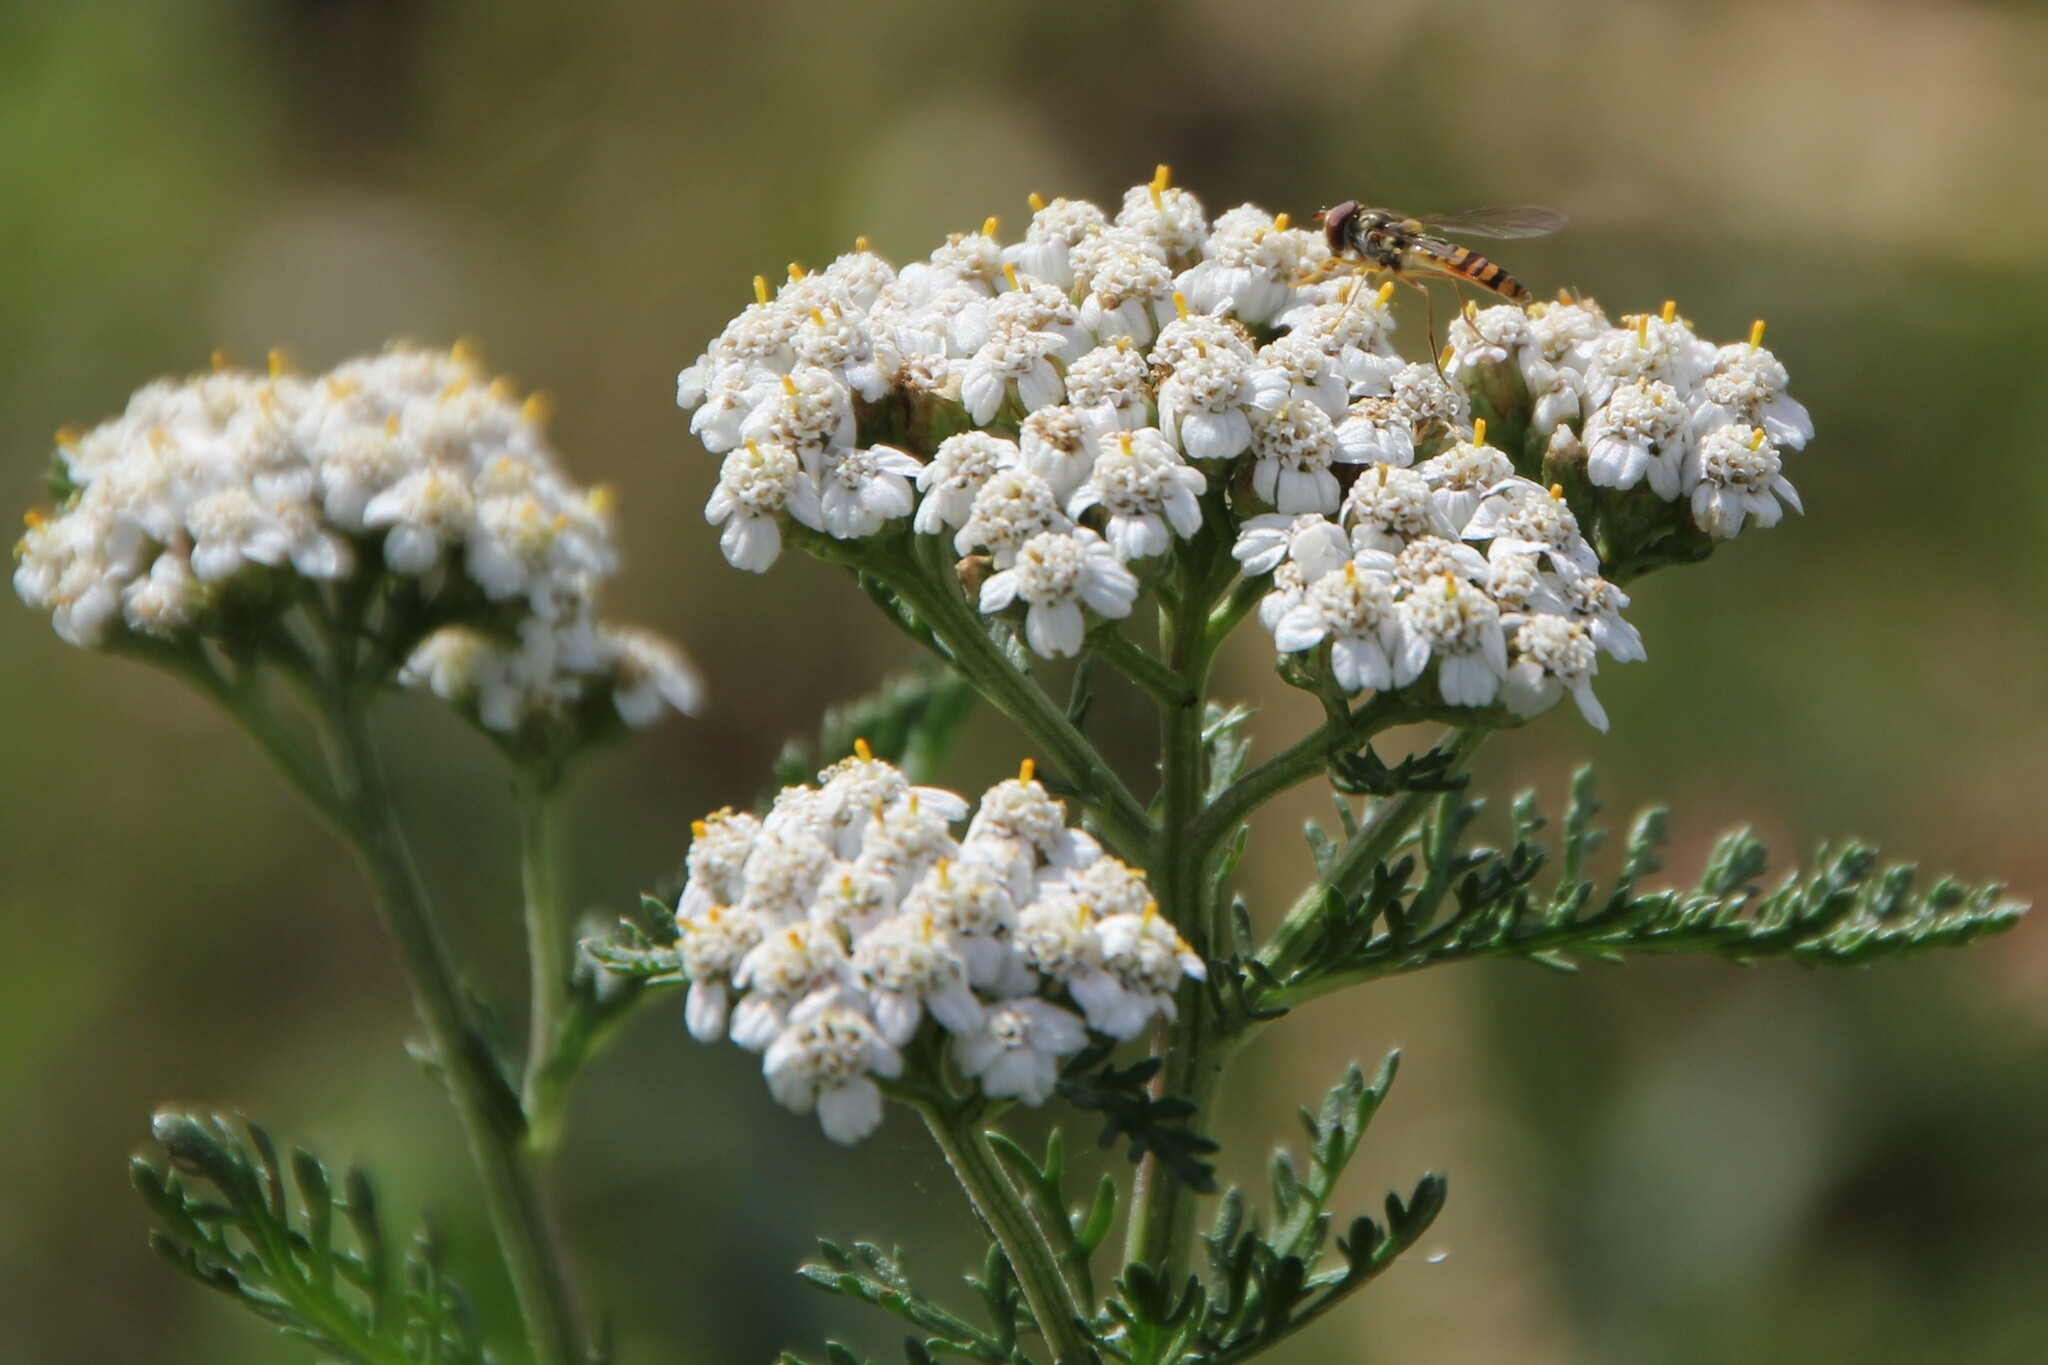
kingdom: Plantae
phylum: Tracheophyta
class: Magnoliopsida
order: Asterales
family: Asteraceae
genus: Achillea
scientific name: Achillea millefolium
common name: Yarrow
